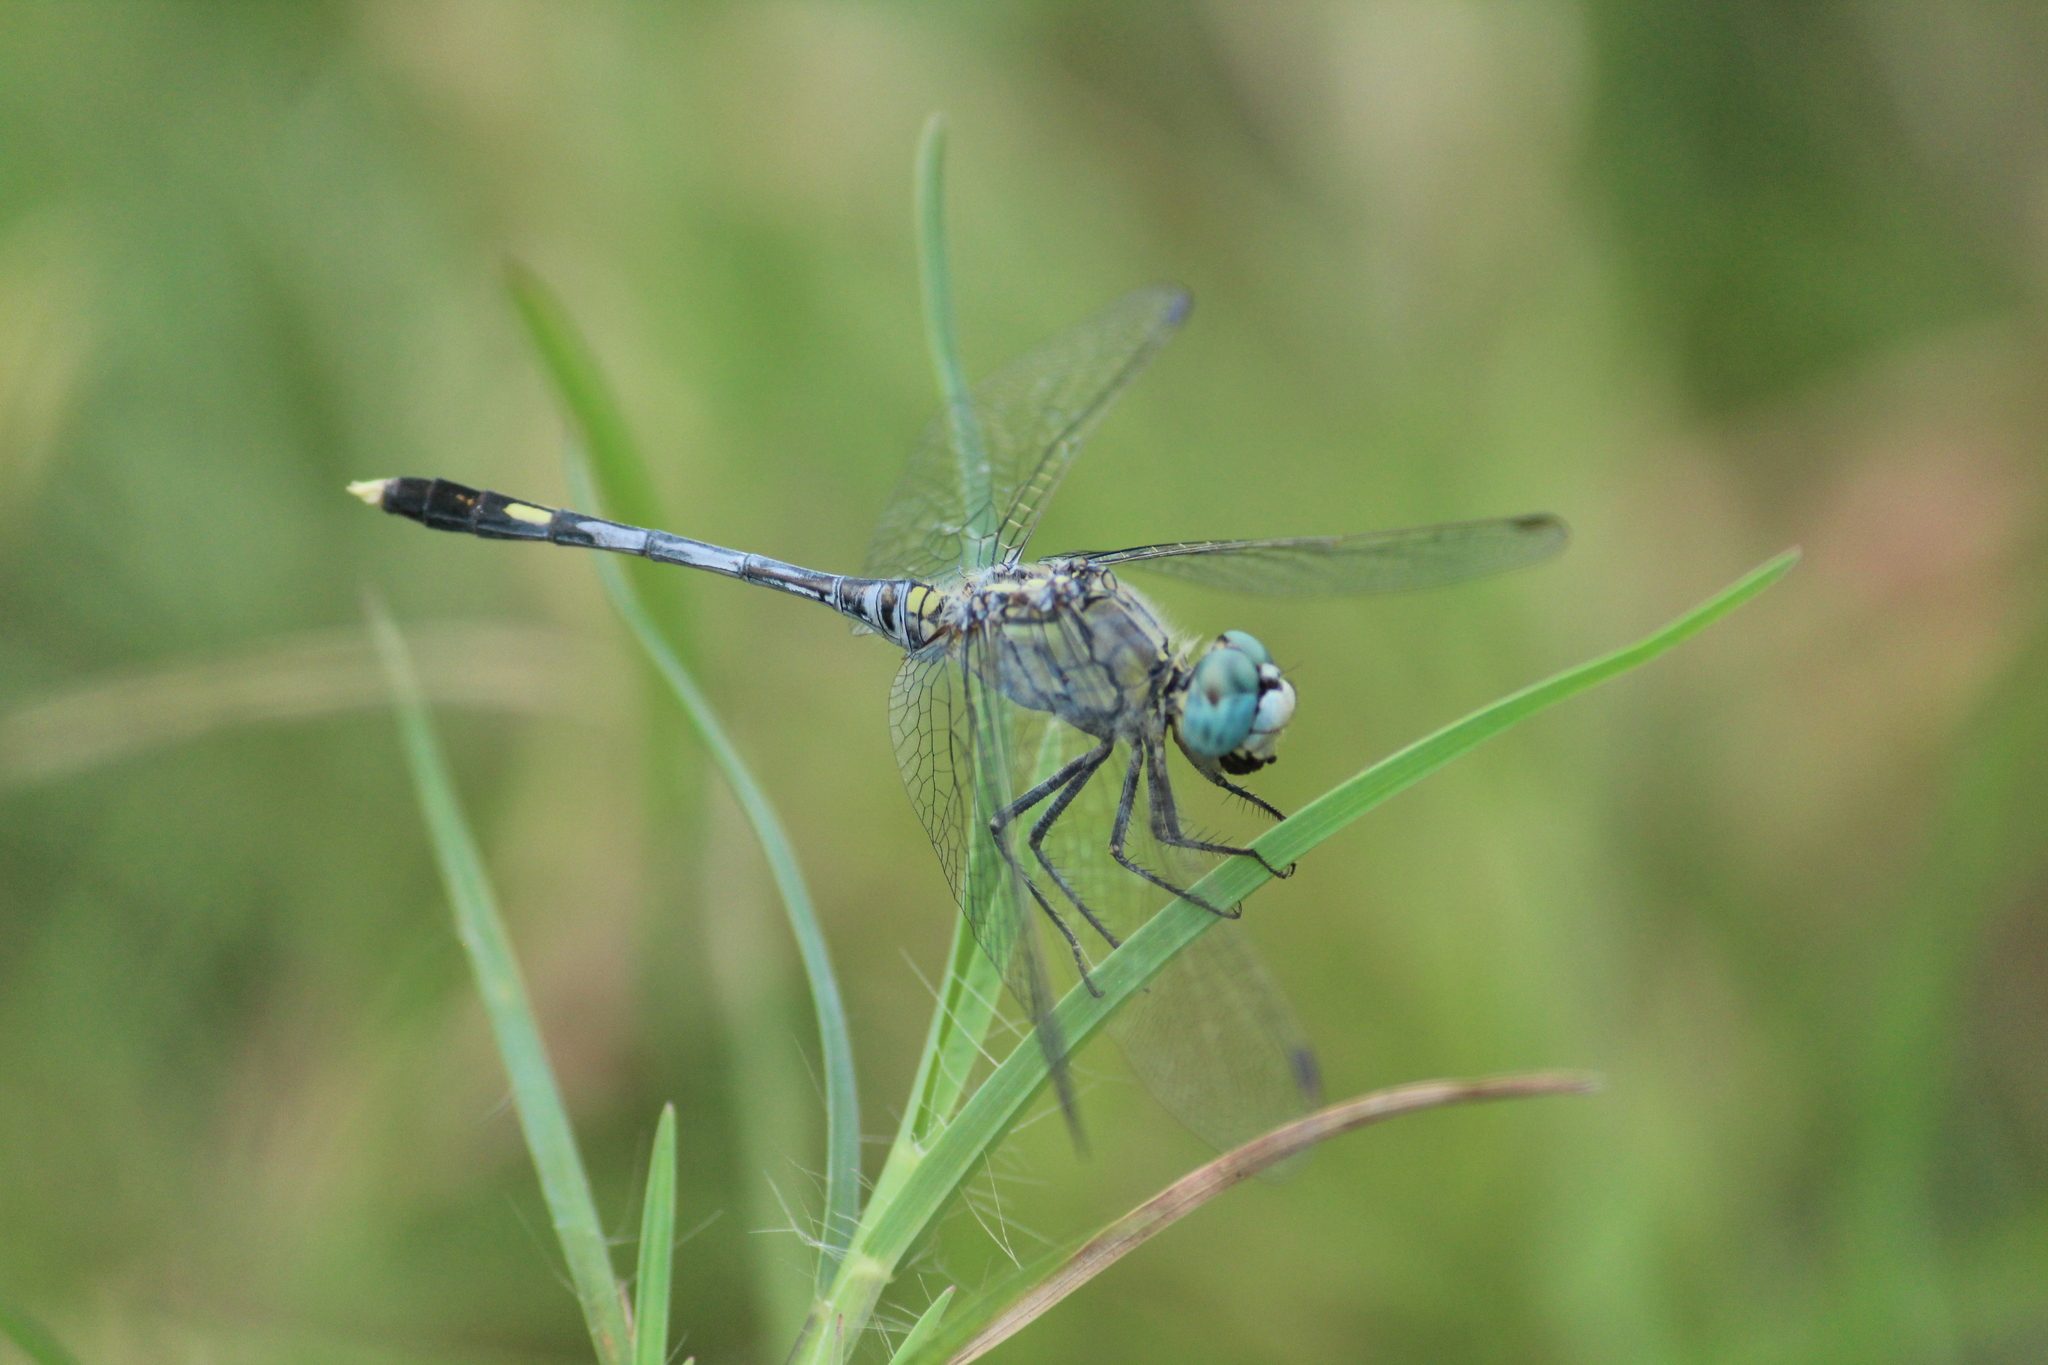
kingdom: Animalia
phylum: Arthropoda
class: Insecta
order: Odonata
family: Libellulidae
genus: Diplacodes
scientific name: Diplacodes trivialis
